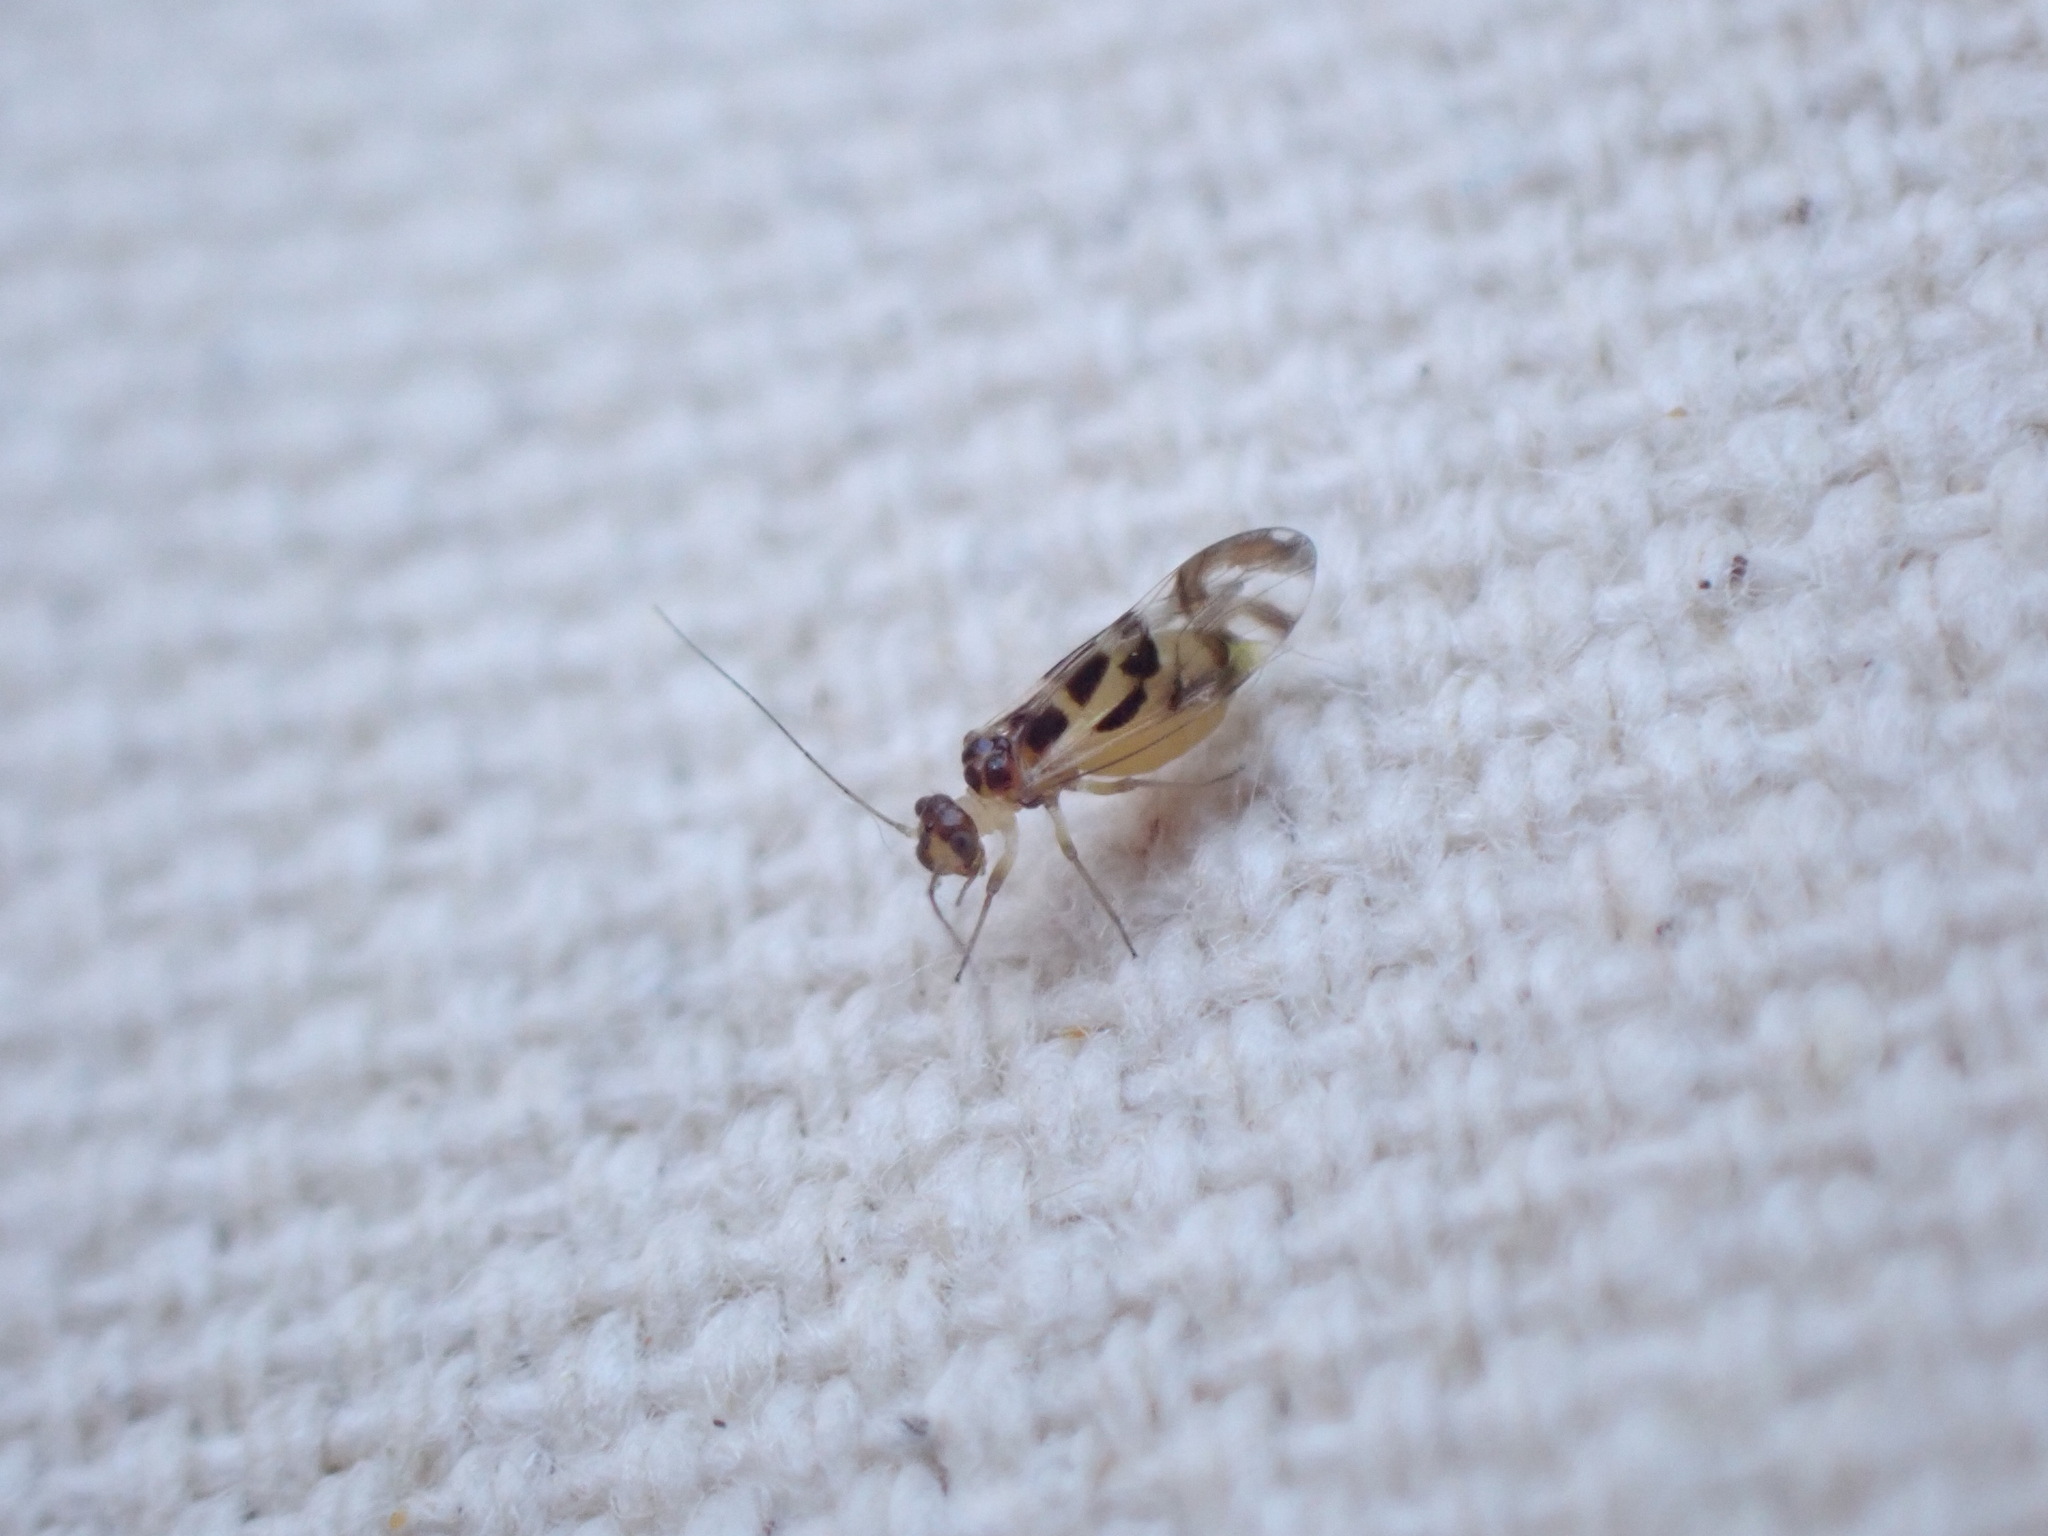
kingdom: Animalia
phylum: Arthropoda
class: Insecta
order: Psocodea
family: Stenopsocidae
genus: Graphopsocus
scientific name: Graphopsocus cruciatus
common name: Lizard bark louse
